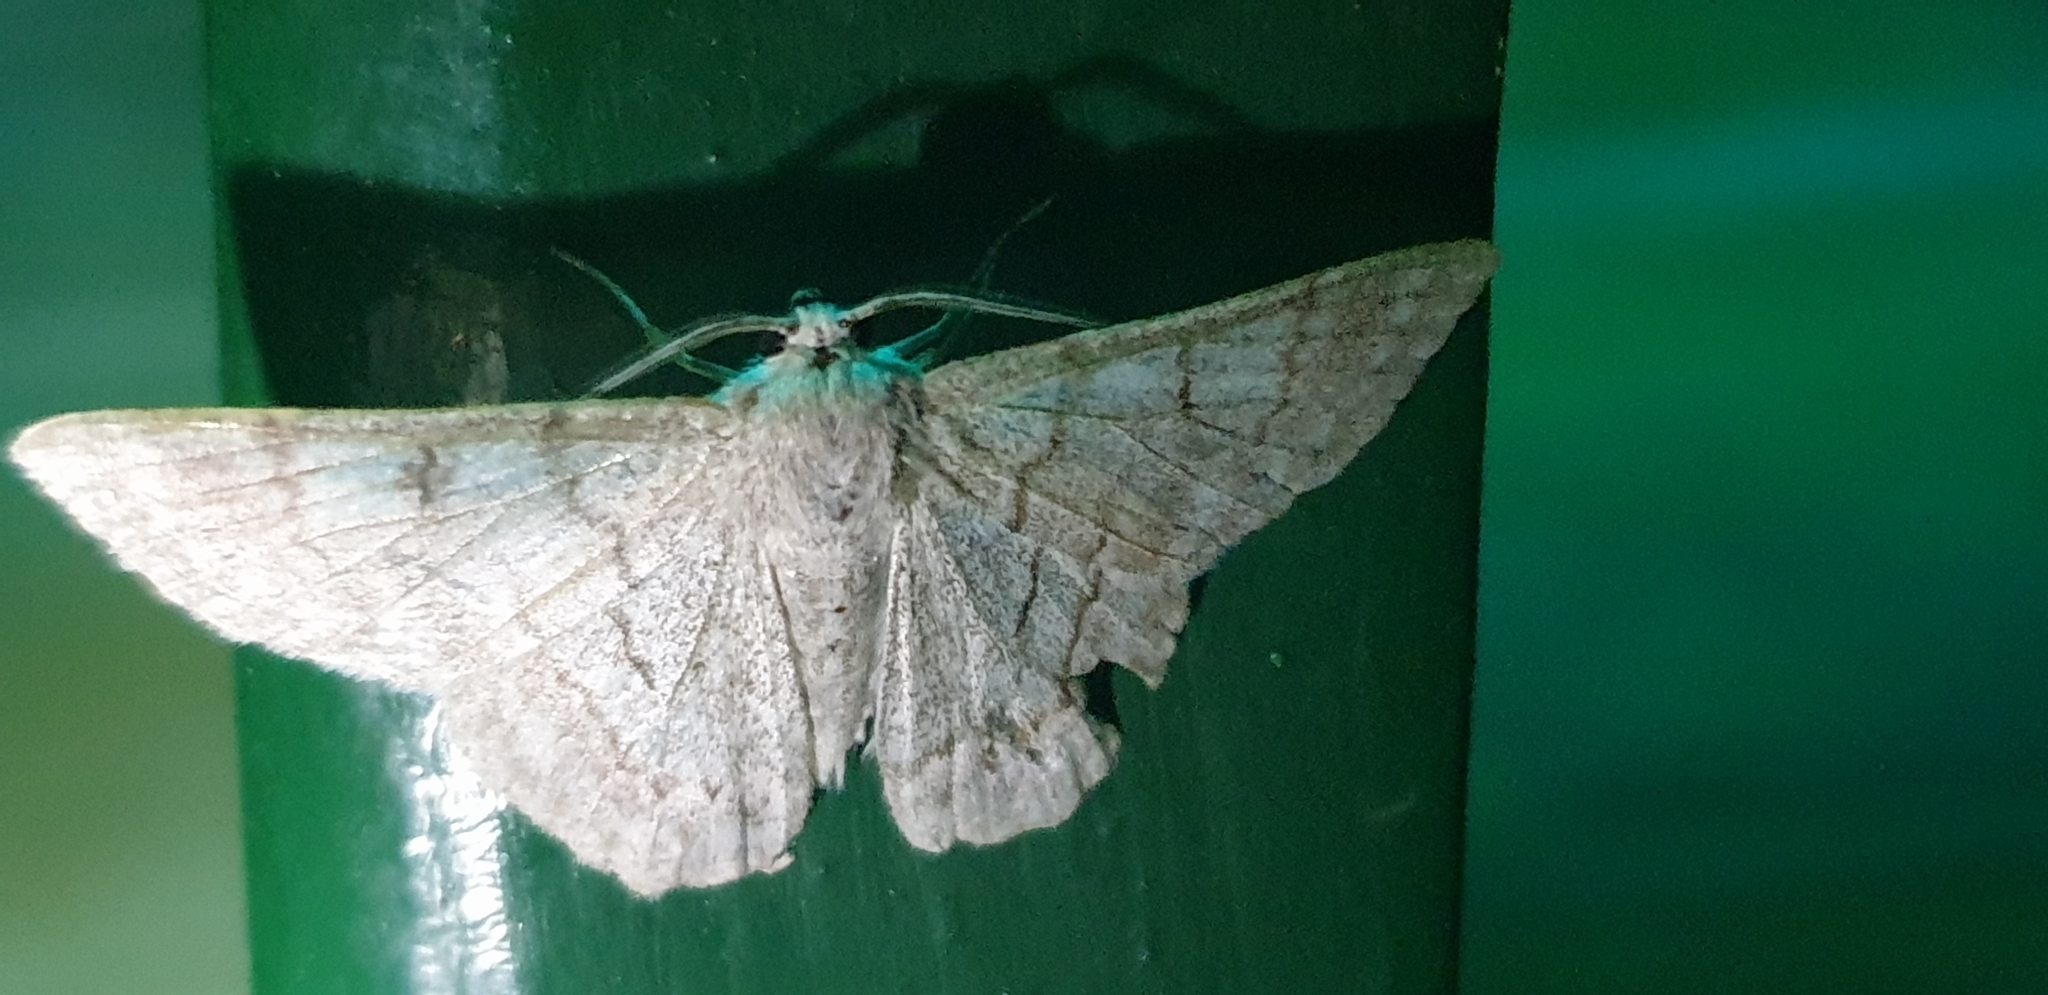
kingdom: Animalia
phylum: Arthropoda
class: Insecta
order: Lepidoptera
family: Geometridae
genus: Crypsiphona
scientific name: Crypsiphona ocultaria
